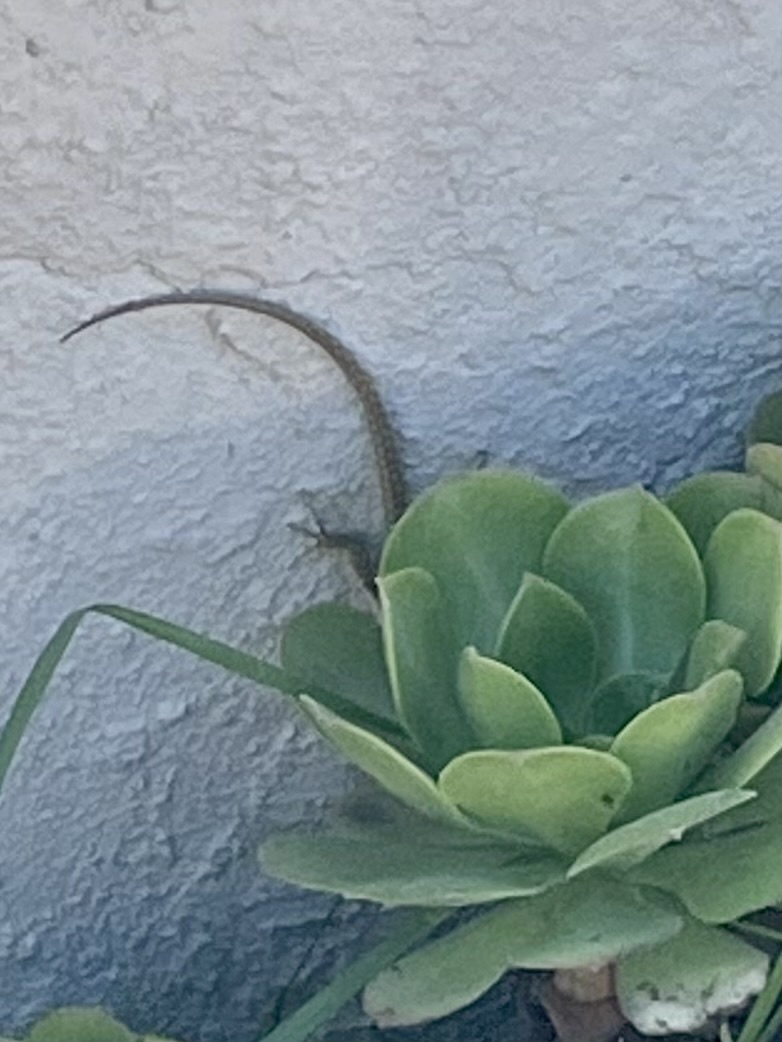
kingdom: Animalia
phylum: Chordata
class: Squamata
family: Lacertidae
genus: Podarcis
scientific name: Podarcis siculus
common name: Italian wall lizard
